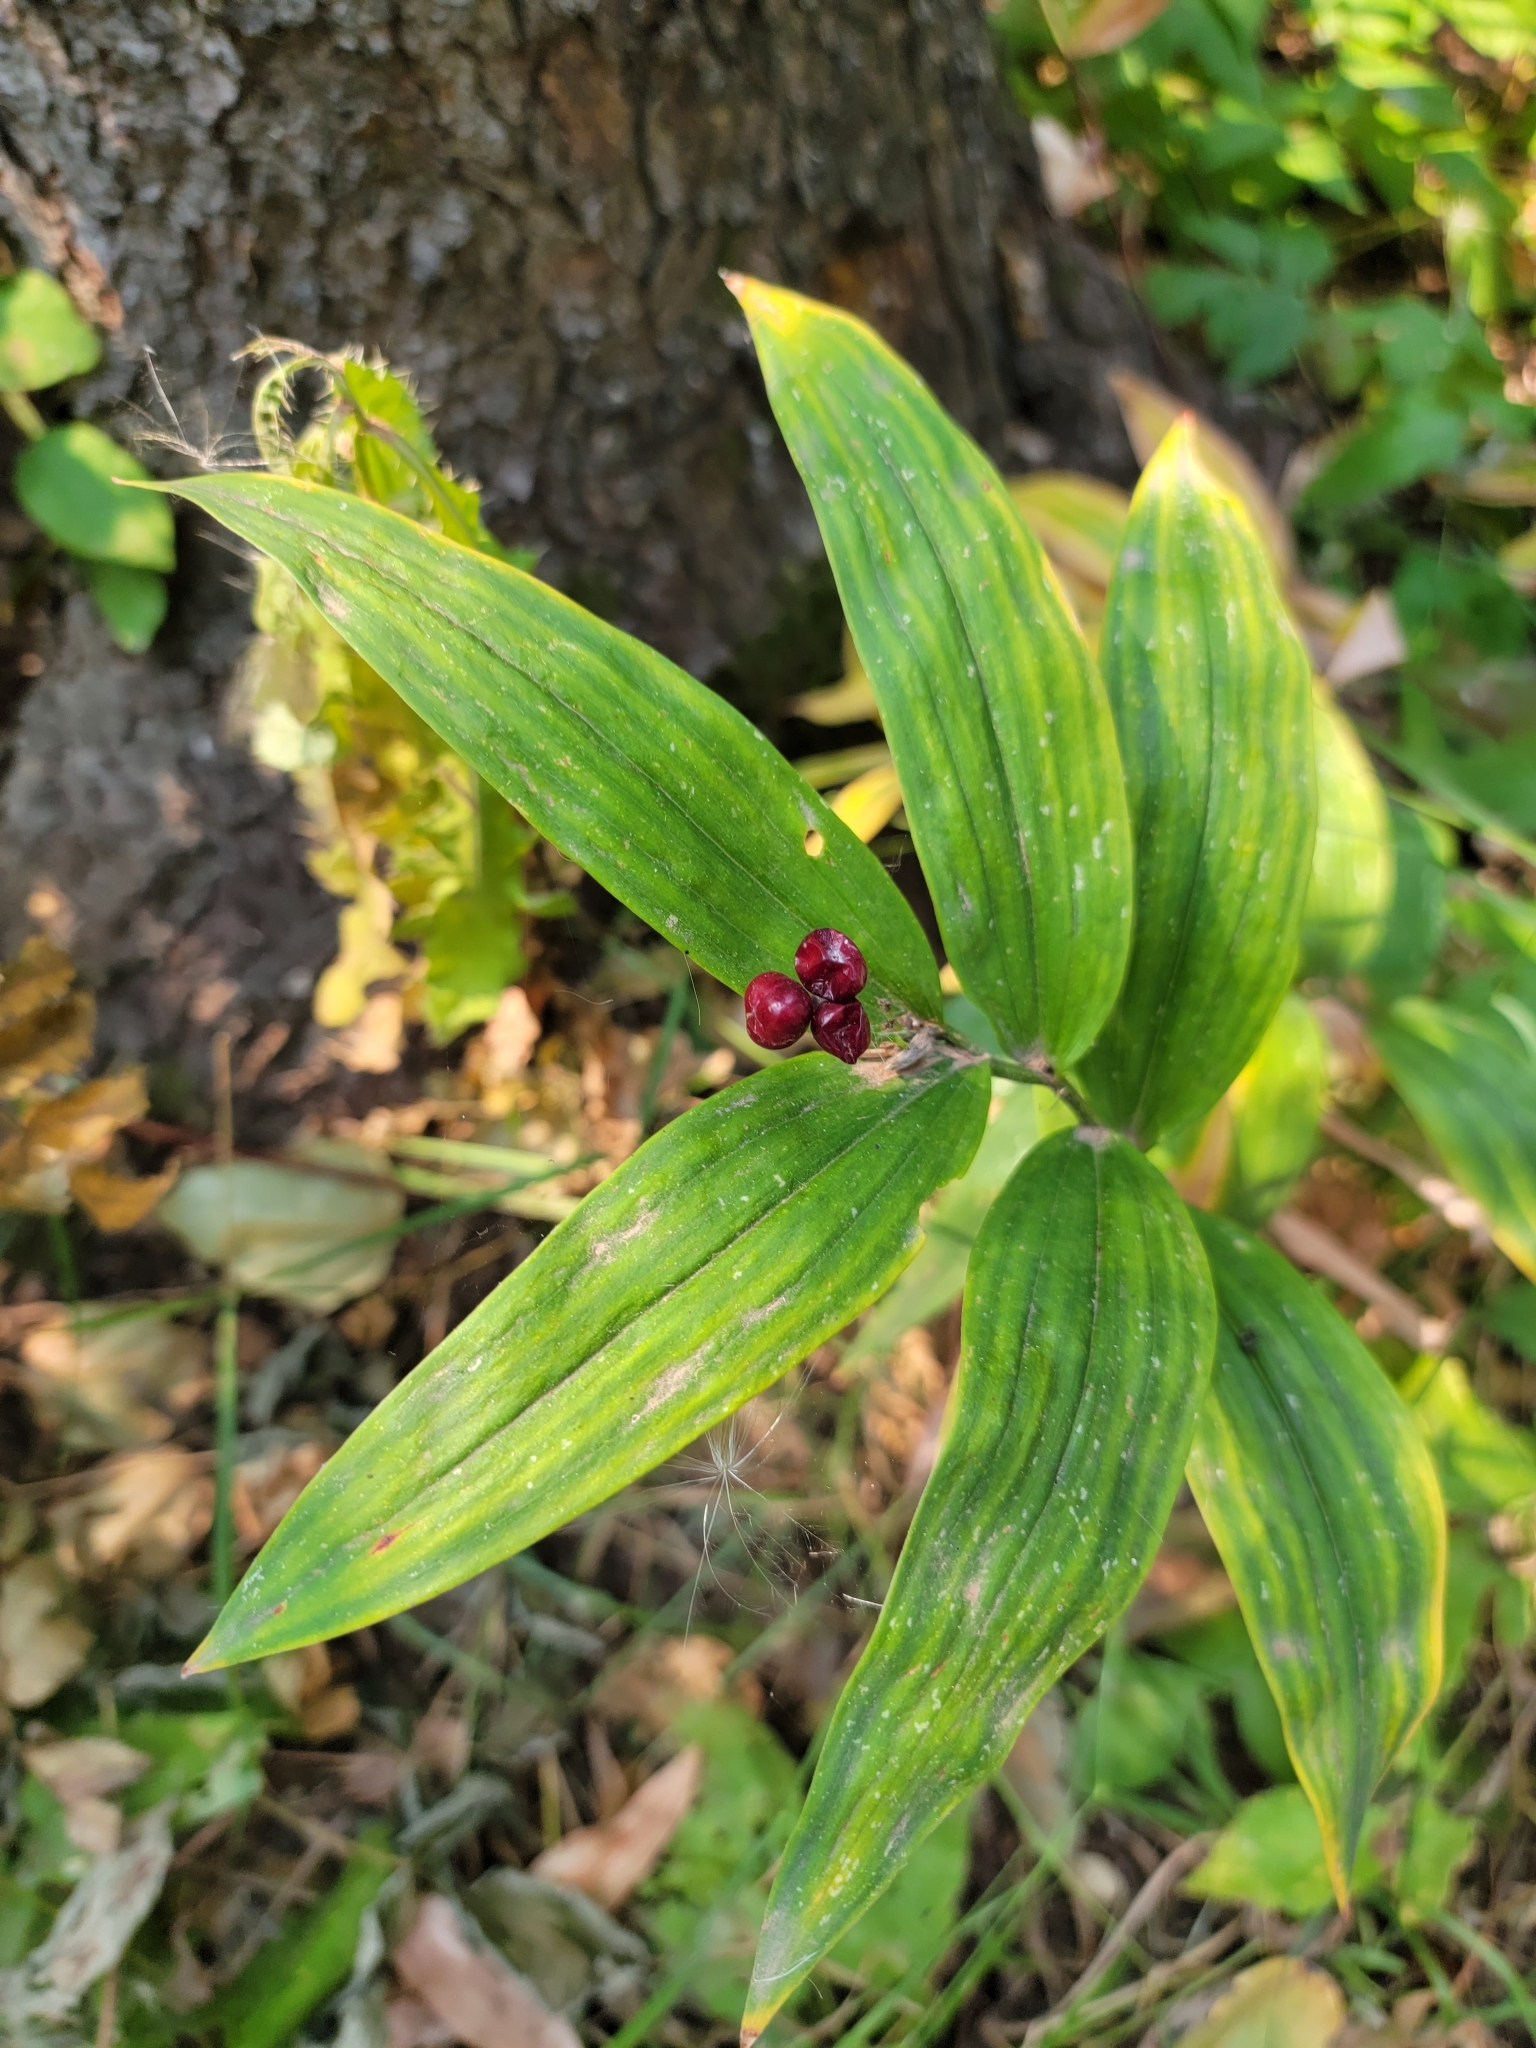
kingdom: Plantae
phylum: Tracheophyta
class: Liliopsida
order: Asparagales
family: Asparagaceae
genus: Maianthemum
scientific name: Maianthemum stellatum
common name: Little false solomon's seal
